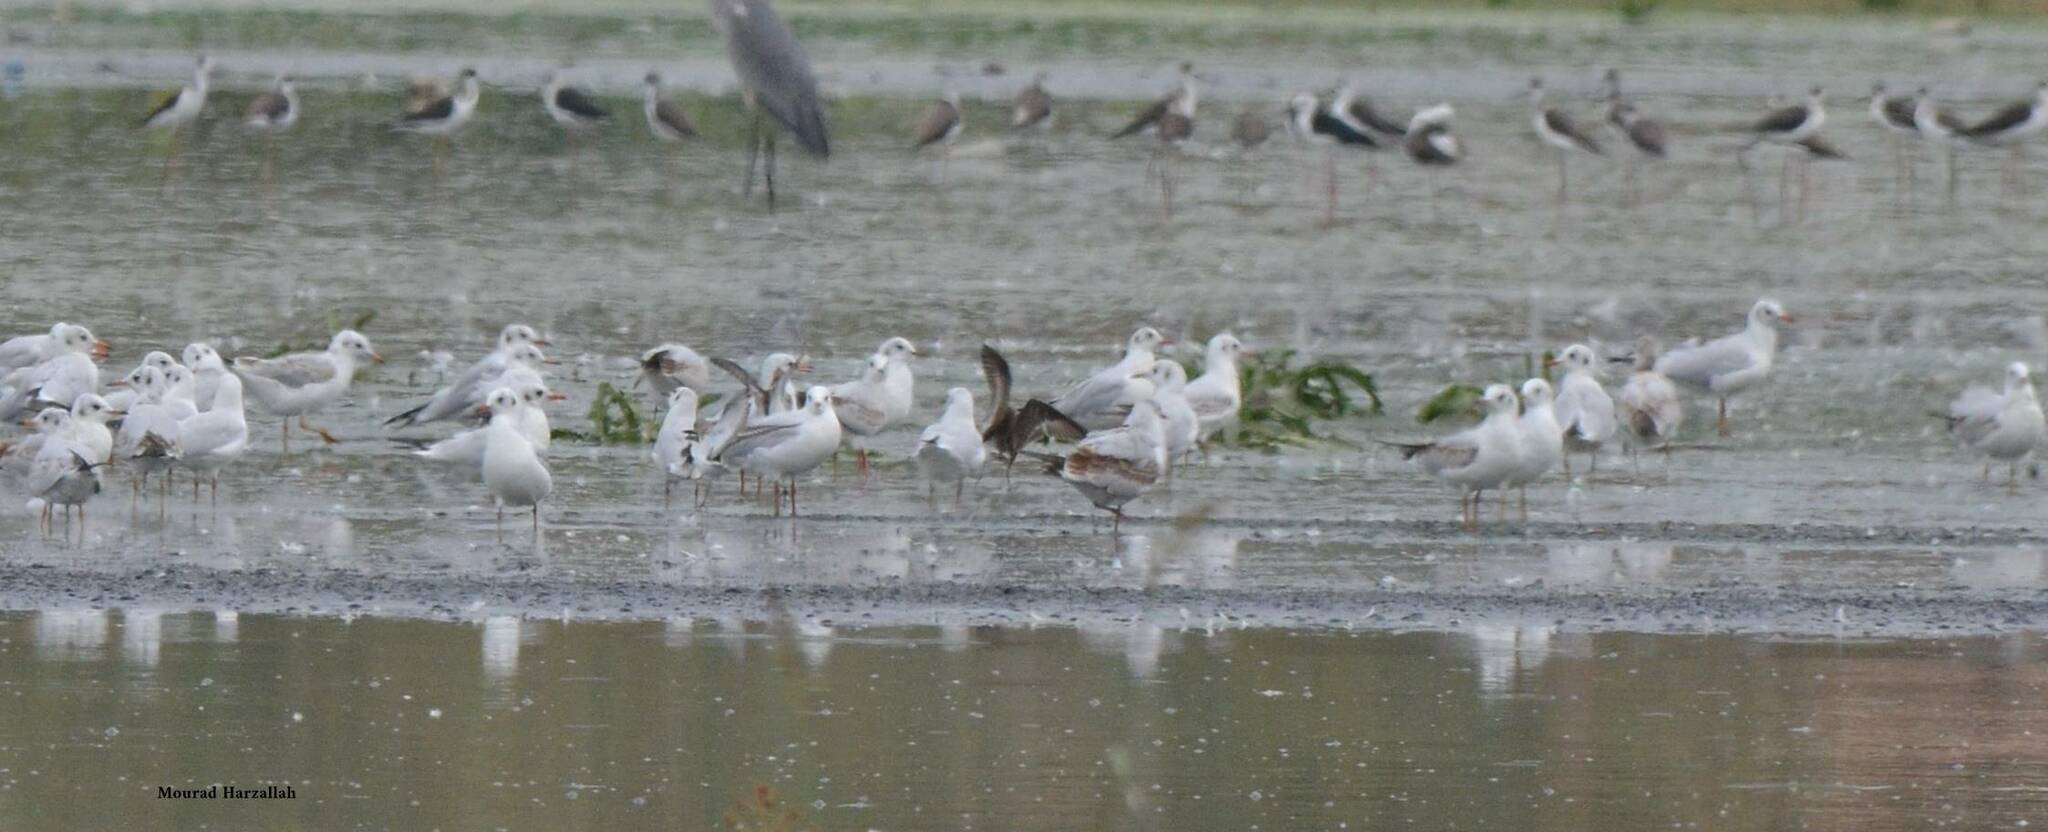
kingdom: Animalia
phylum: Chordata
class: Aves
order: Charadriiformes
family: Laridae
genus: Chroicocephalus
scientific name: Chroicocephalus ridibundus
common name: Black-headed gull
